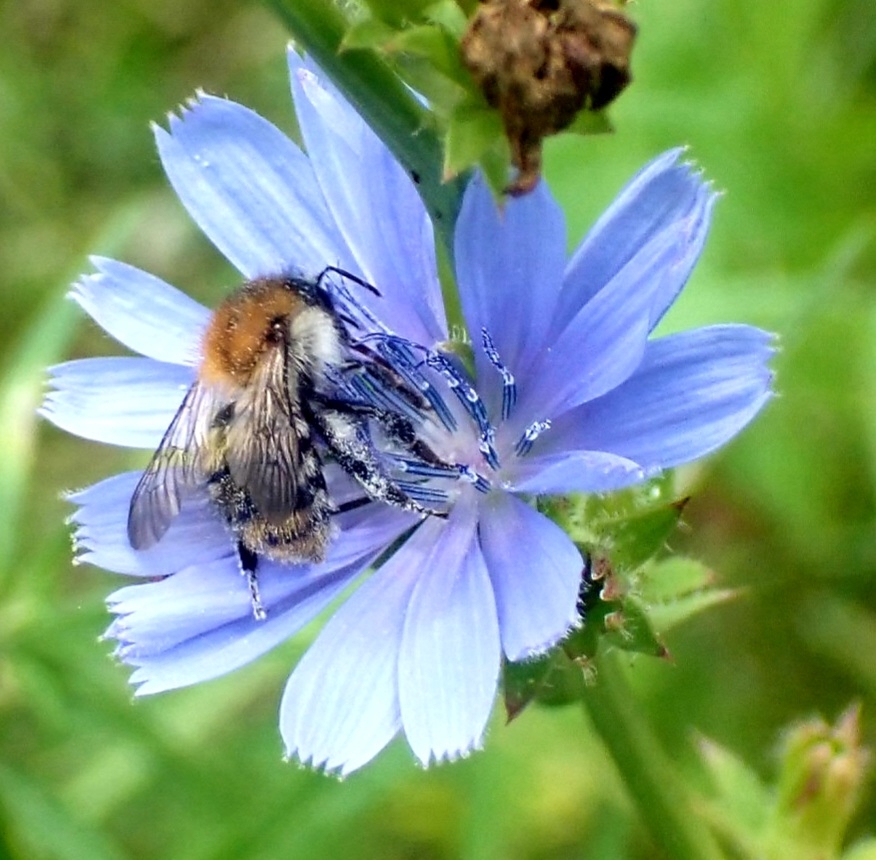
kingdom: Animalia
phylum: Arthropoda
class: Insecta
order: Hymenoptera
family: Apidae
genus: Bombus
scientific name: Bombus pascuorum
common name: Common carder bee
